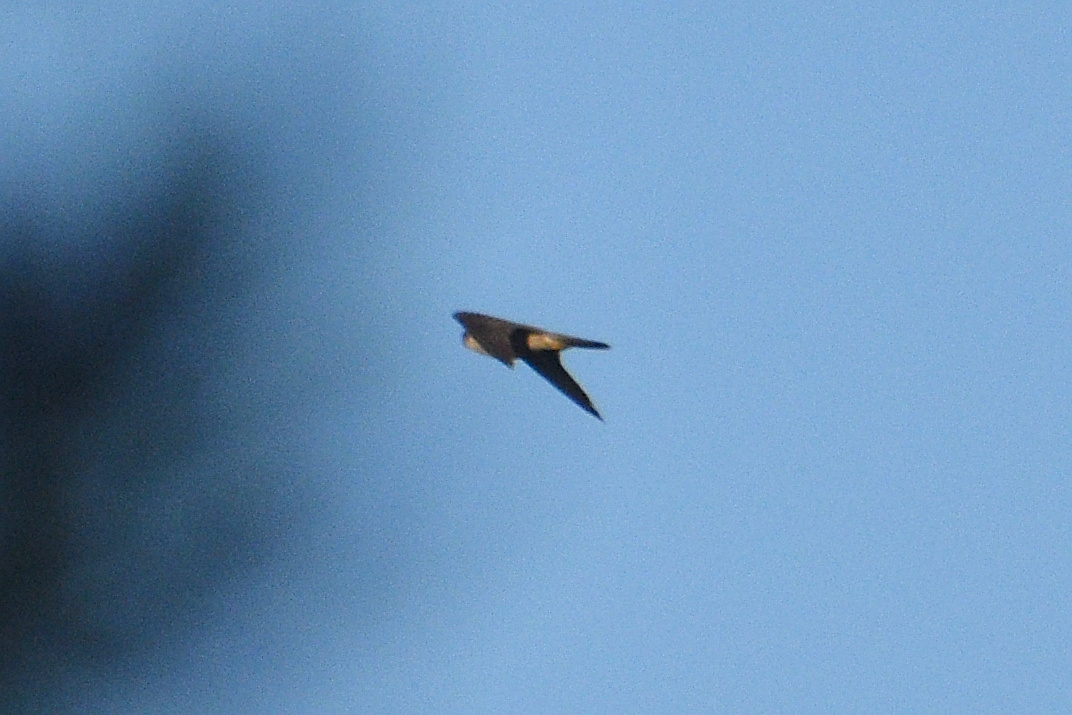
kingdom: Animalia
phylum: Chordata
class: Aves
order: Falconiformes
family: Falconidae
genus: Falco
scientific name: Falco columbarius
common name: Merlin
